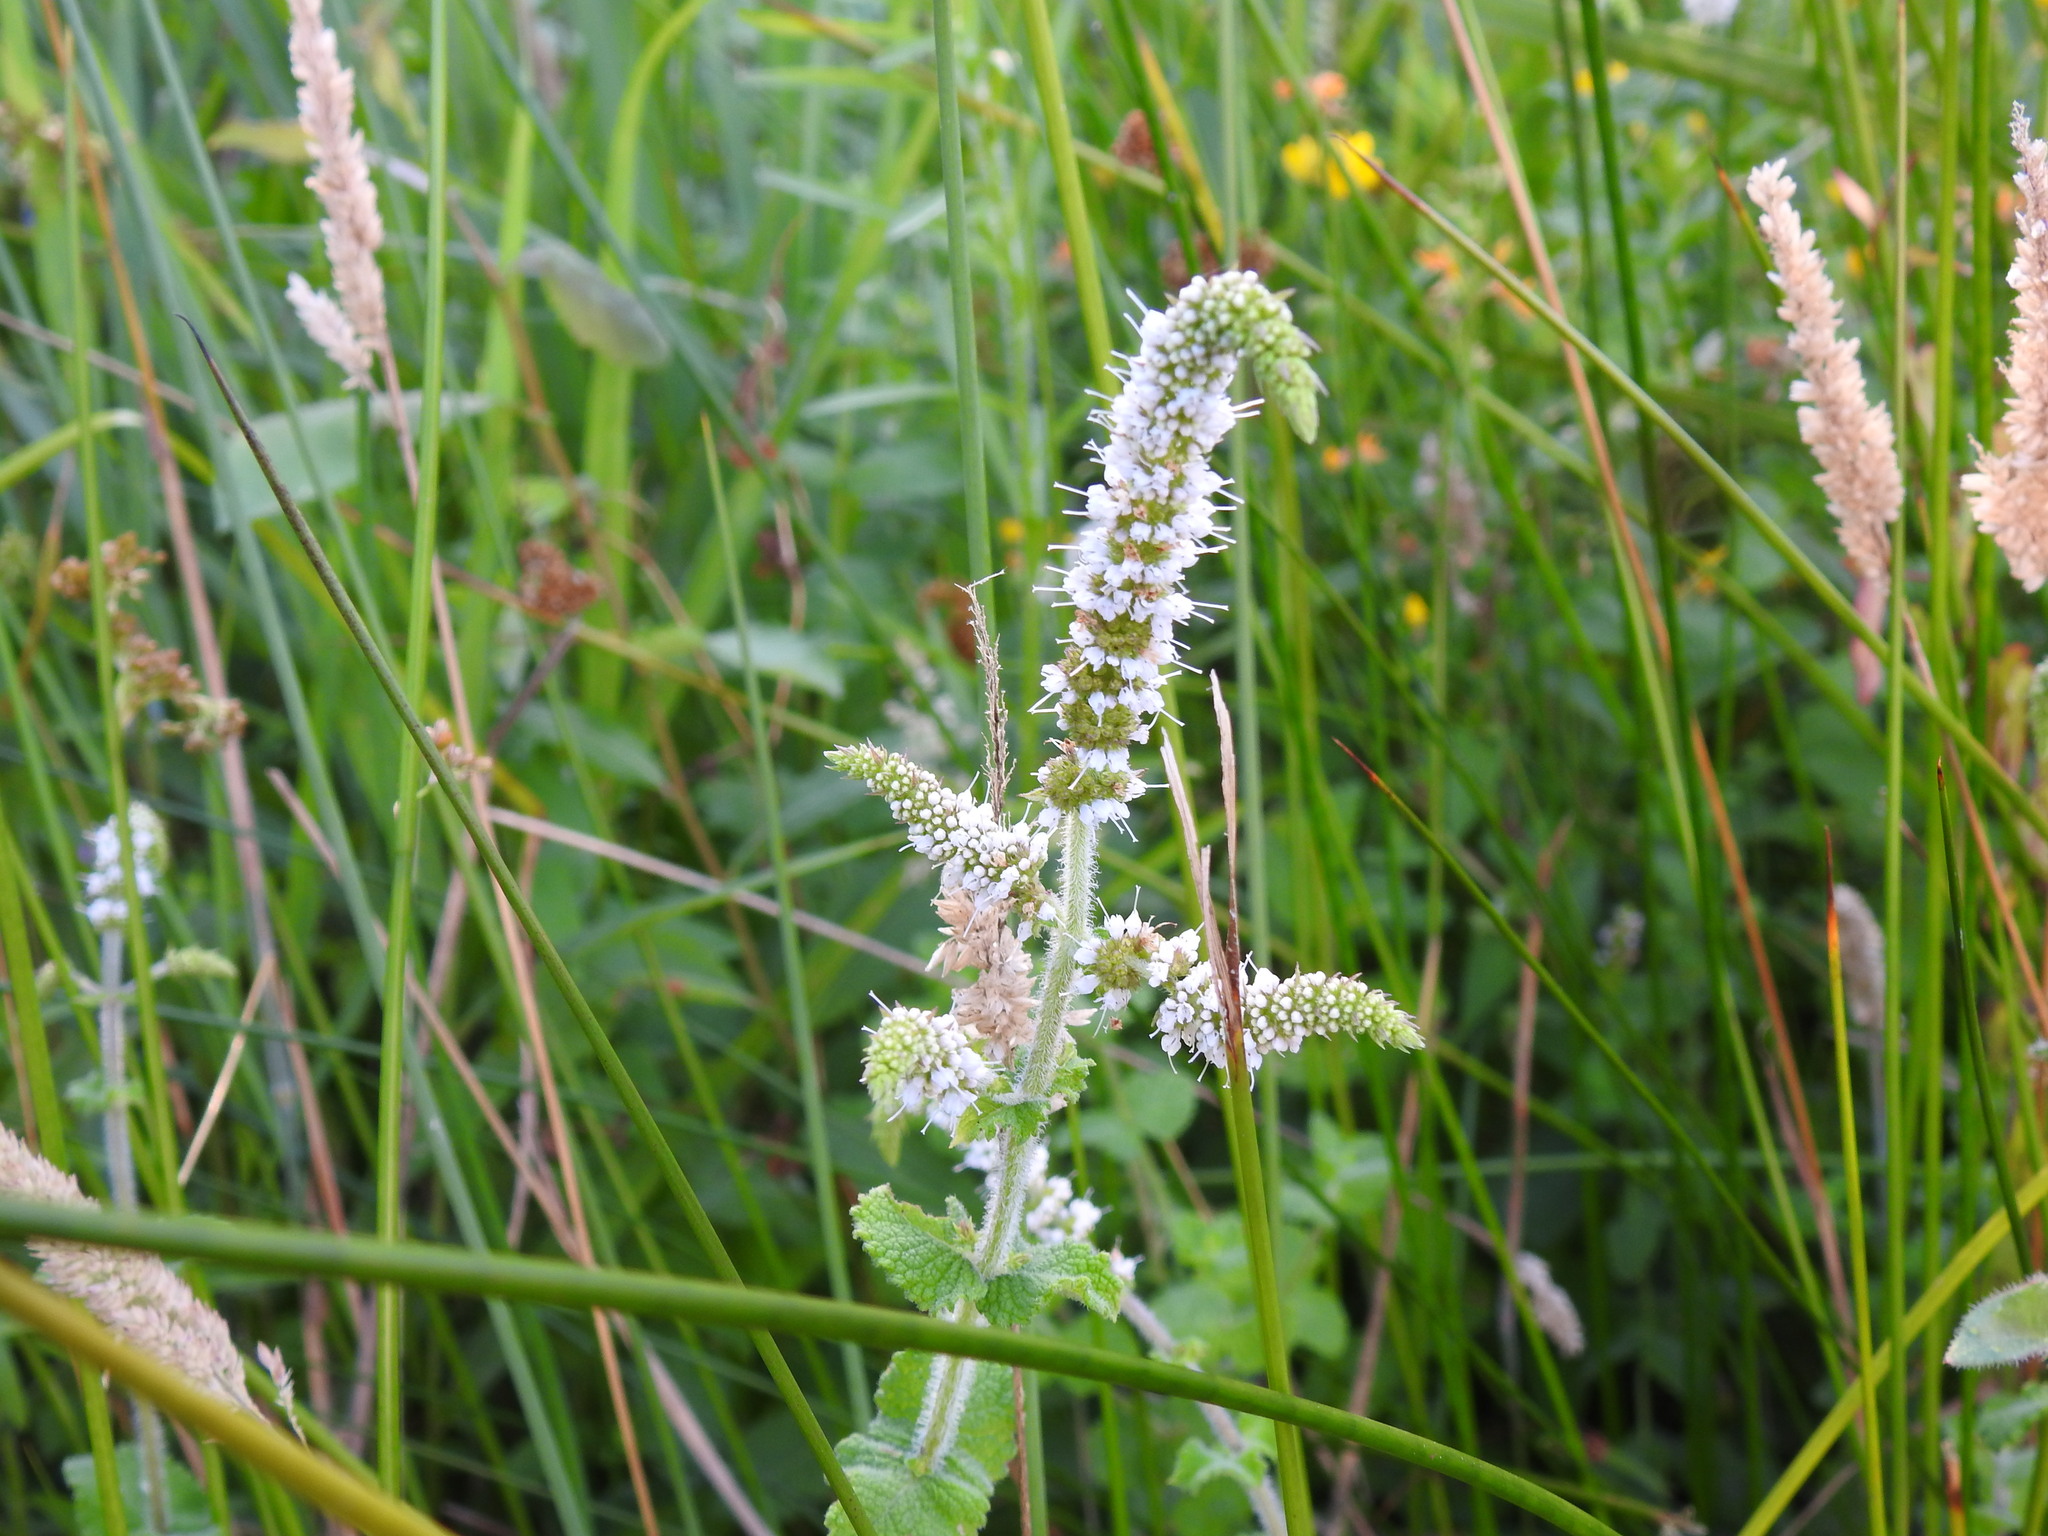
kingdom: Plantae
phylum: Tracheophyta
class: Magnoliopsida
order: Lamiales
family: Lamiaceae
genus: Mentha
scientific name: Mentha suaveolens
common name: Apple mint
